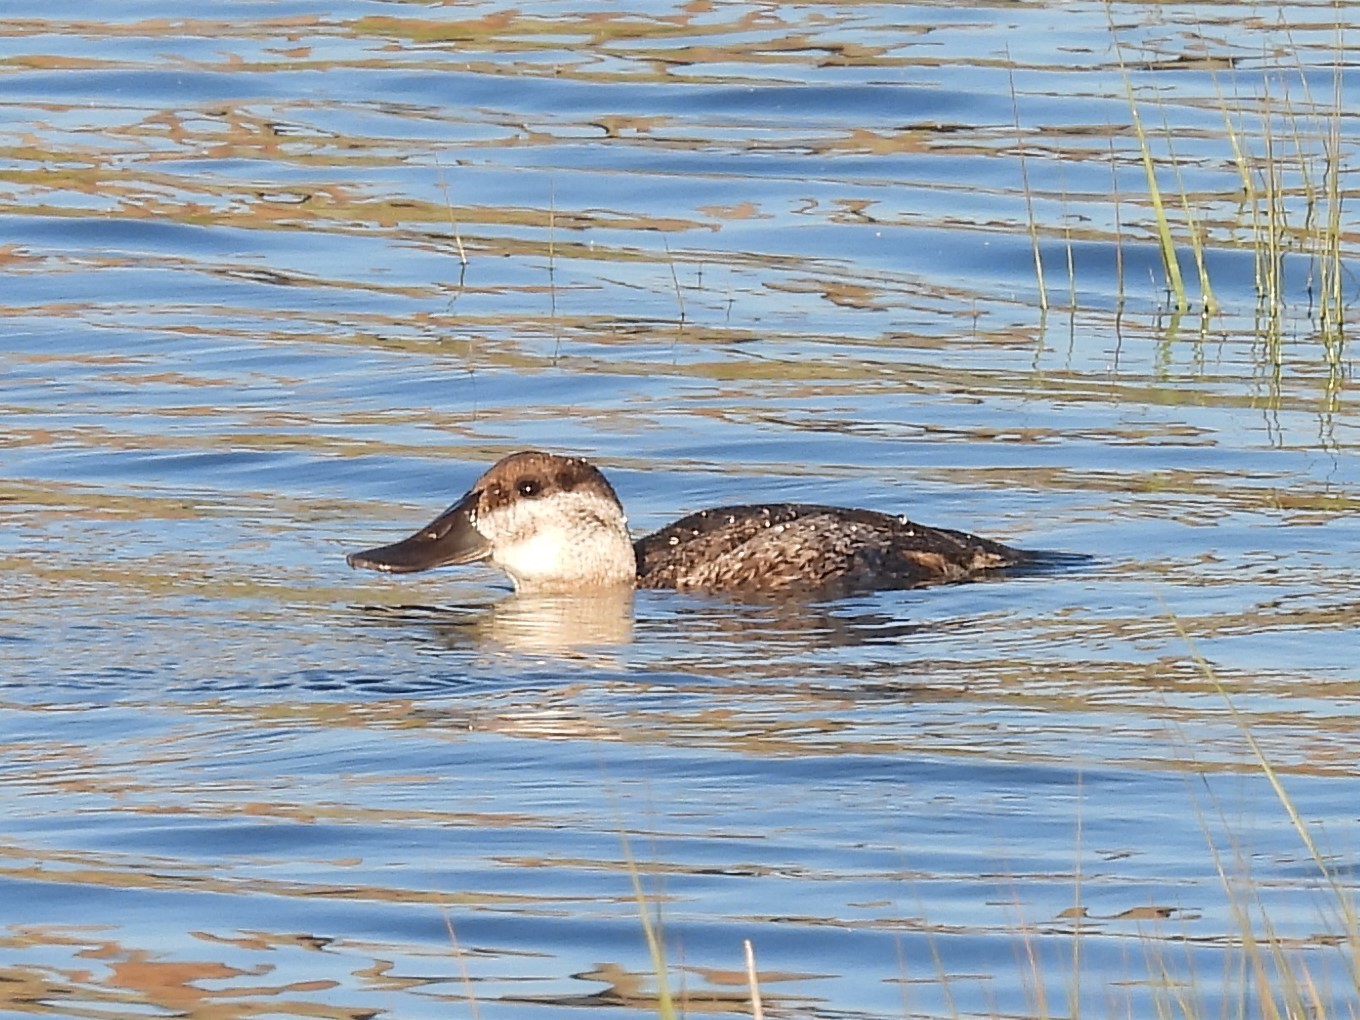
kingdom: Animalia
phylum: Chordata
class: Aves
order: Anseriformes
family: Anatidae
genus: Oxyura
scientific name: Oxyura jamaicensis
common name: Ruddy duck
